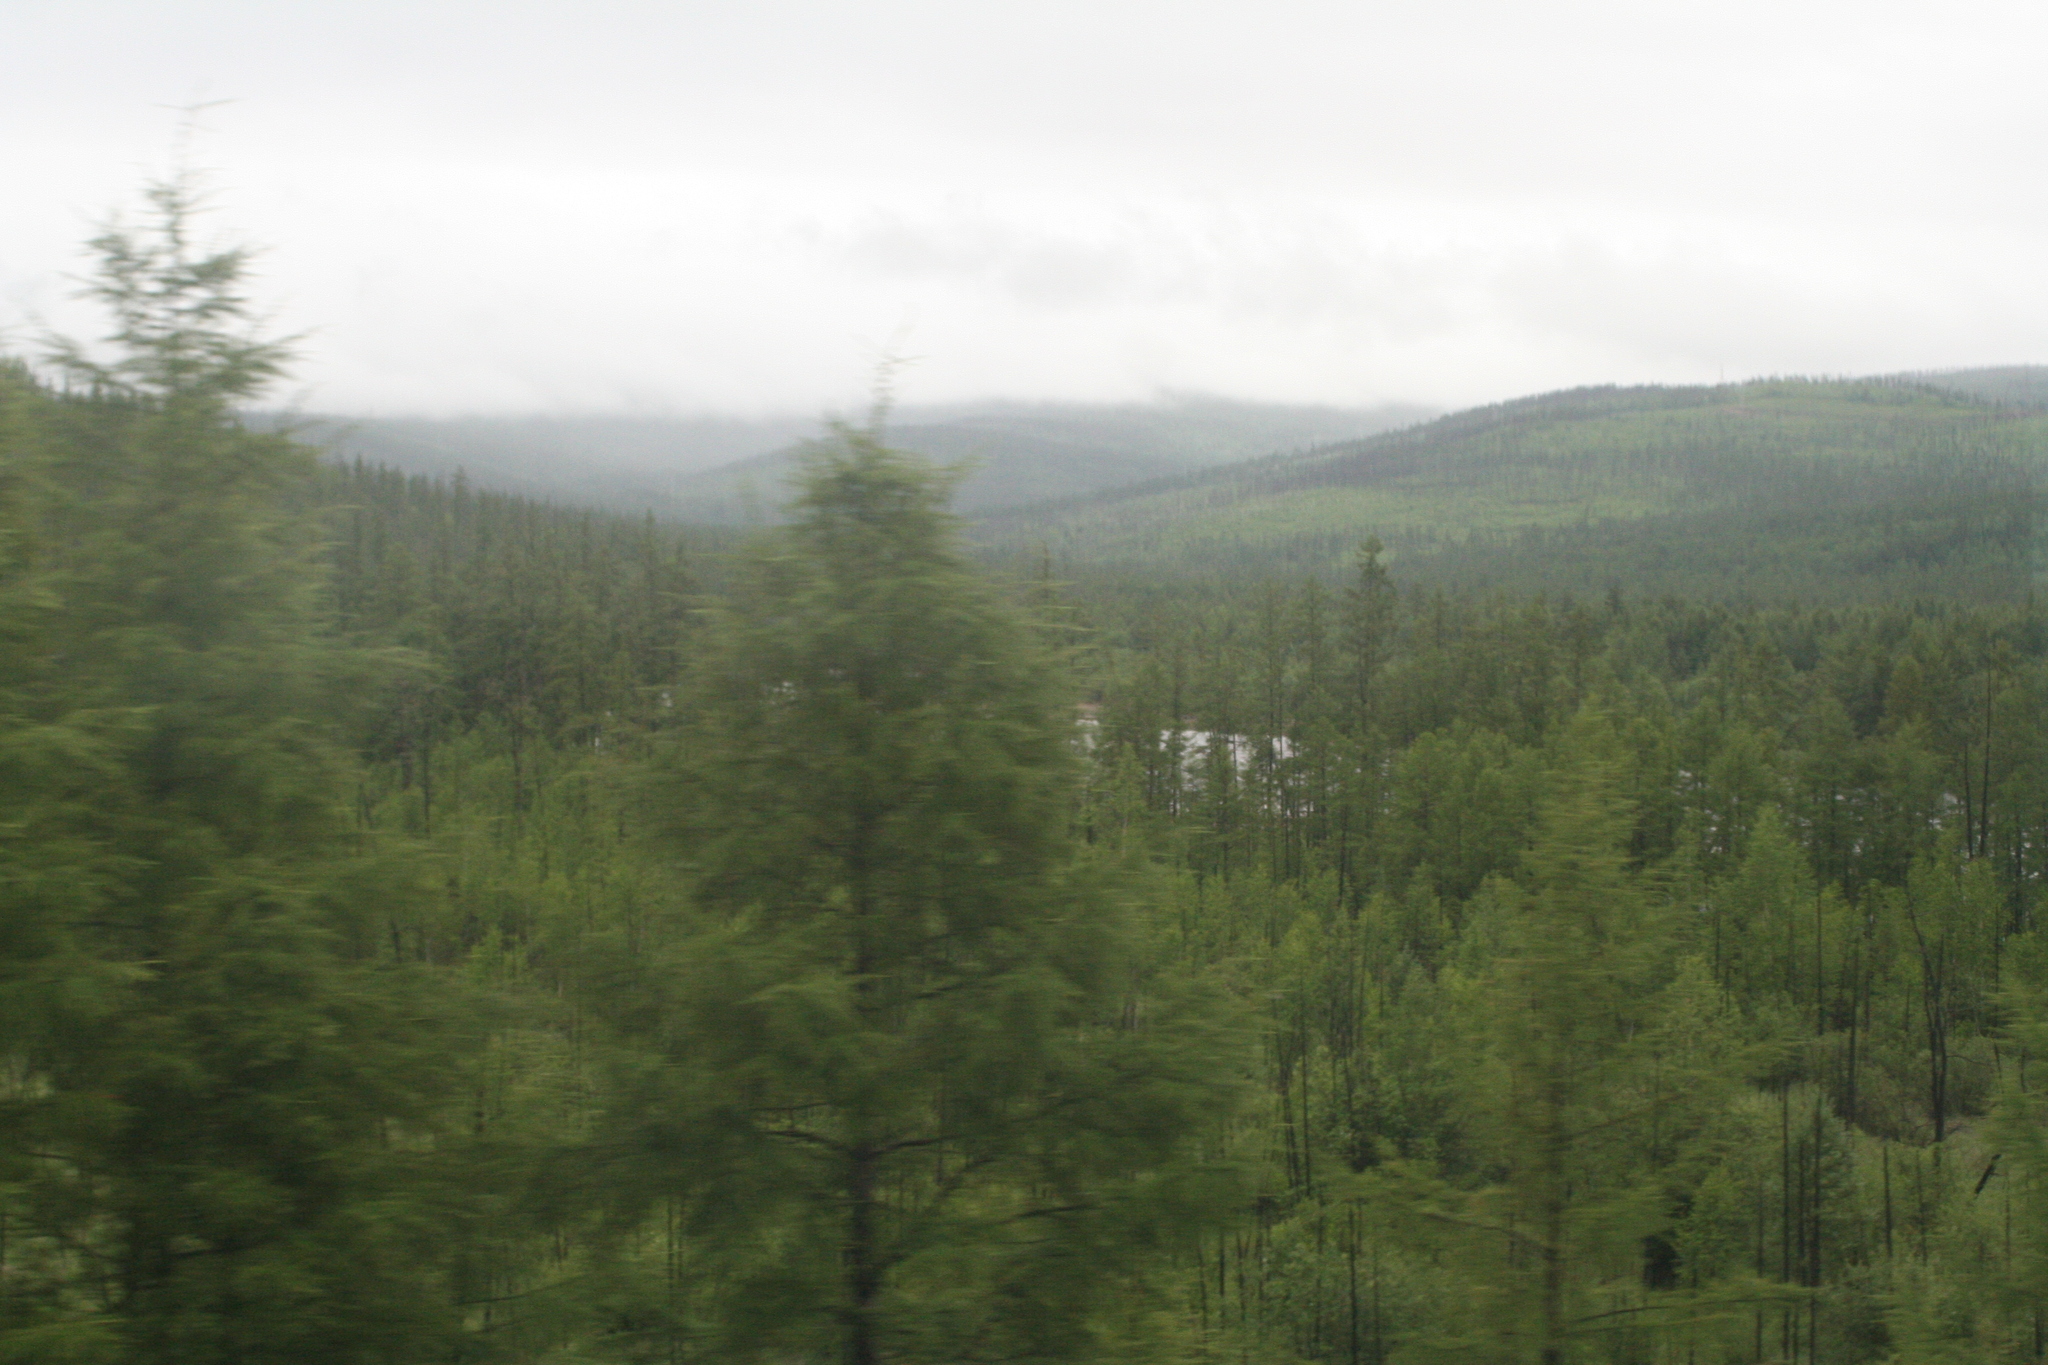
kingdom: Plantae
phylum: Tracheophyta
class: Pinopsida
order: Pinales
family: Pinaceae
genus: Larix
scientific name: Larix gmelinii
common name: Dahurian larch
